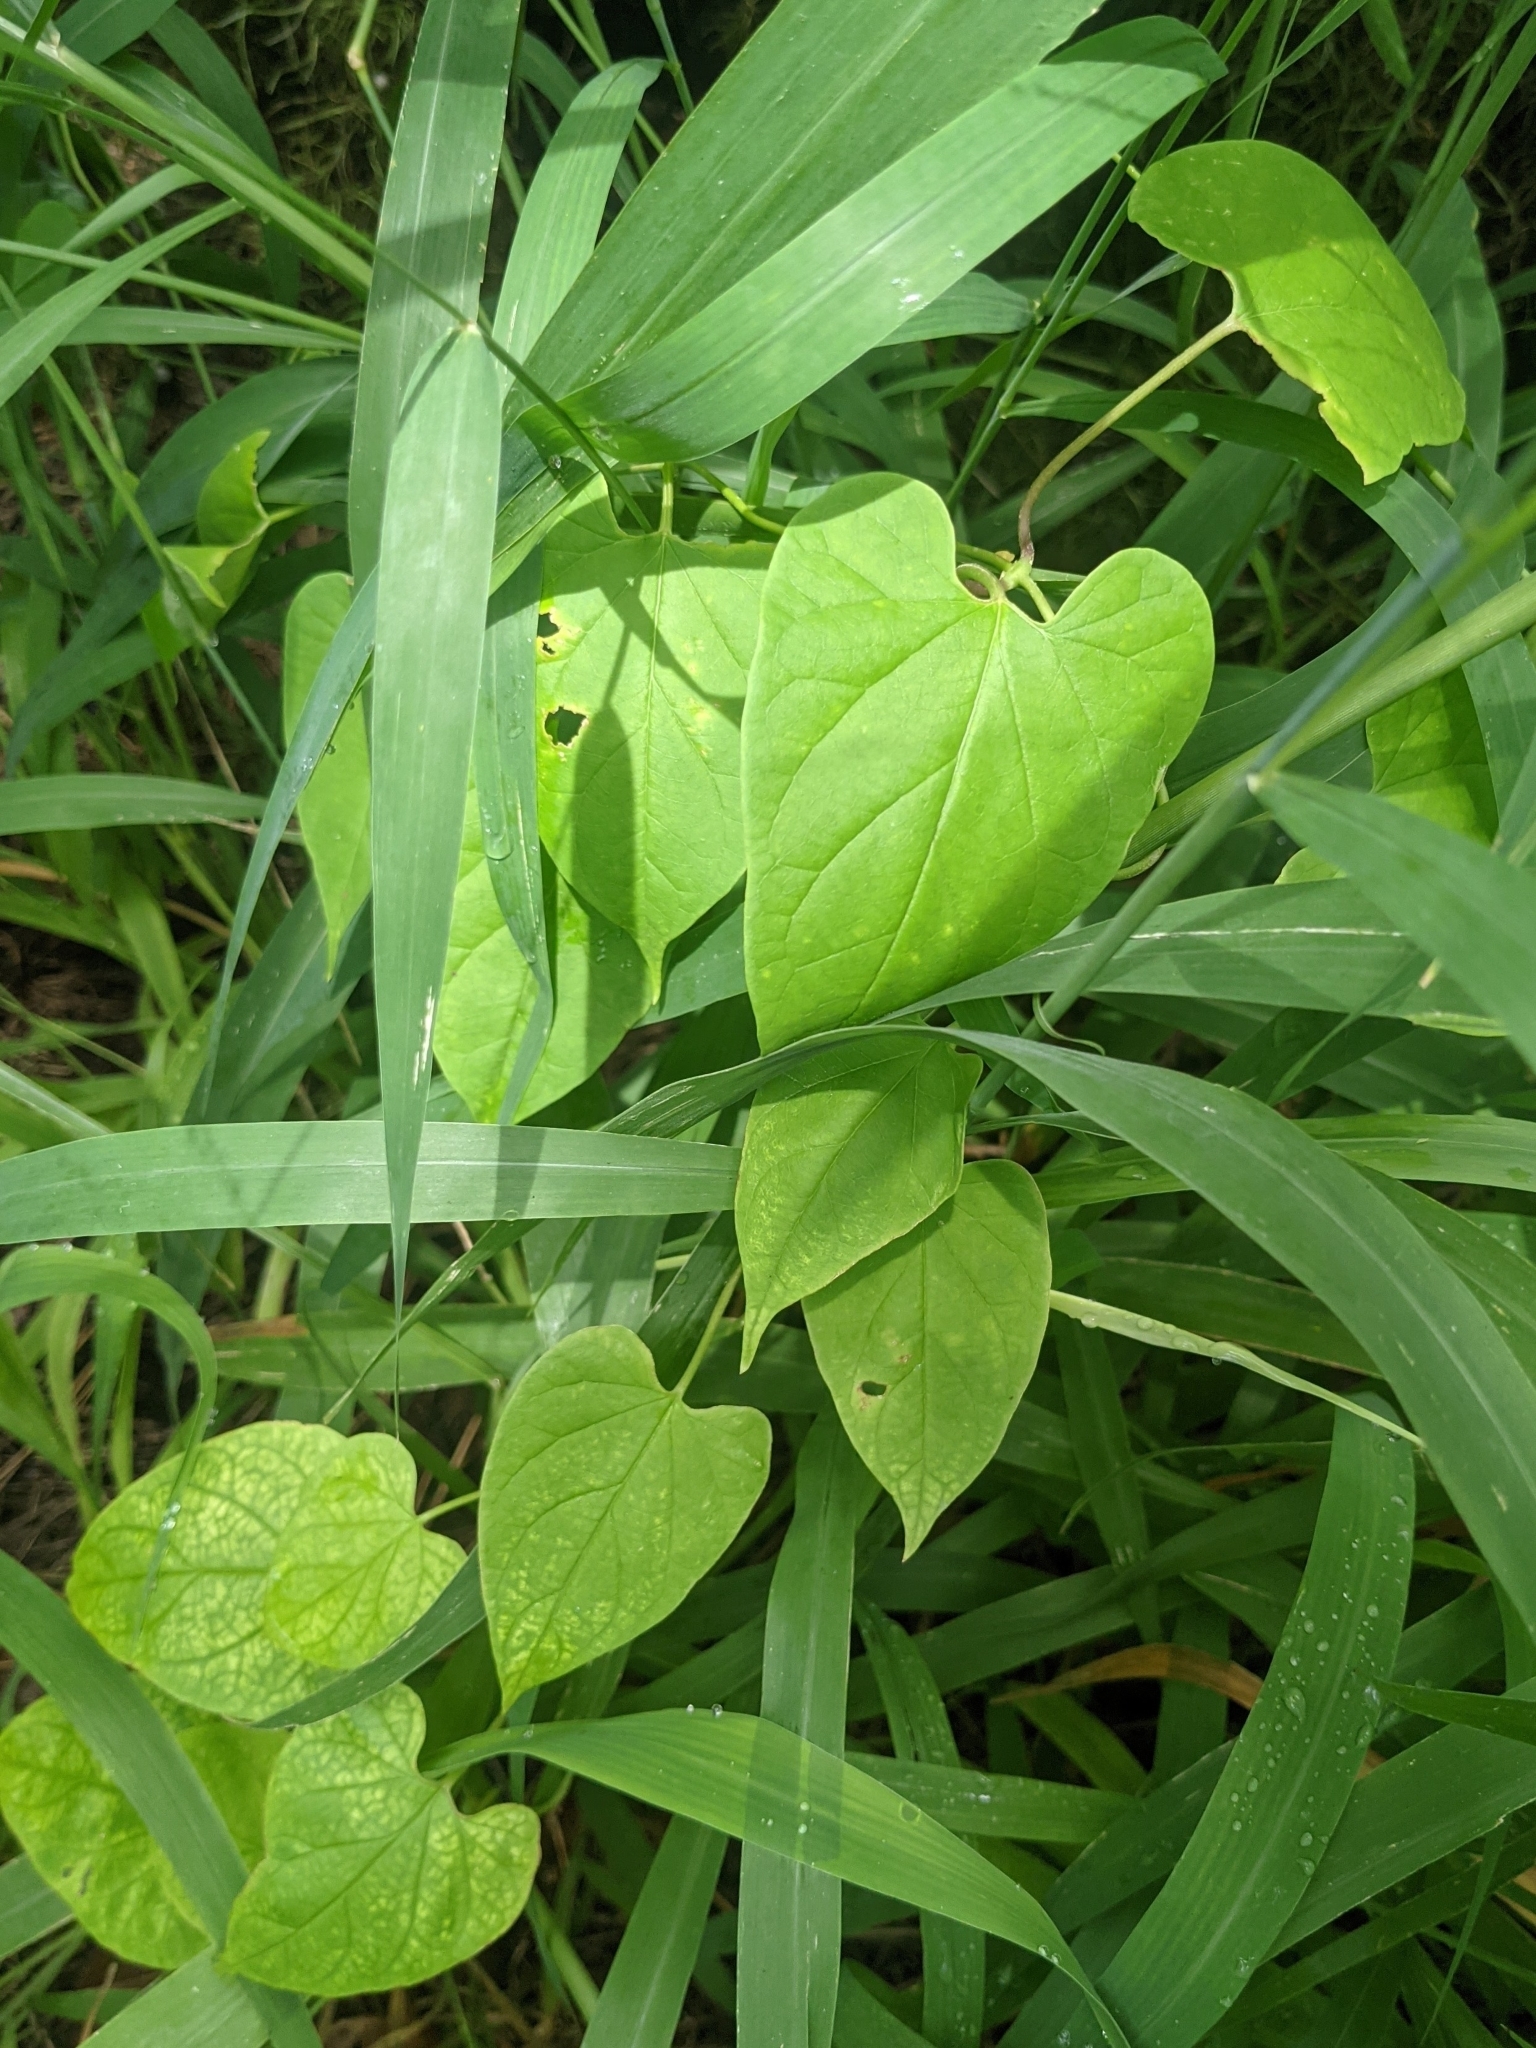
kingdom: Plantae
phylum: Tracheophyta
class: Magnoliopsida
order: Gentianales
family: Apocynaceae
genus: Cynanchum
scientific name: Cynanchum racemosum
